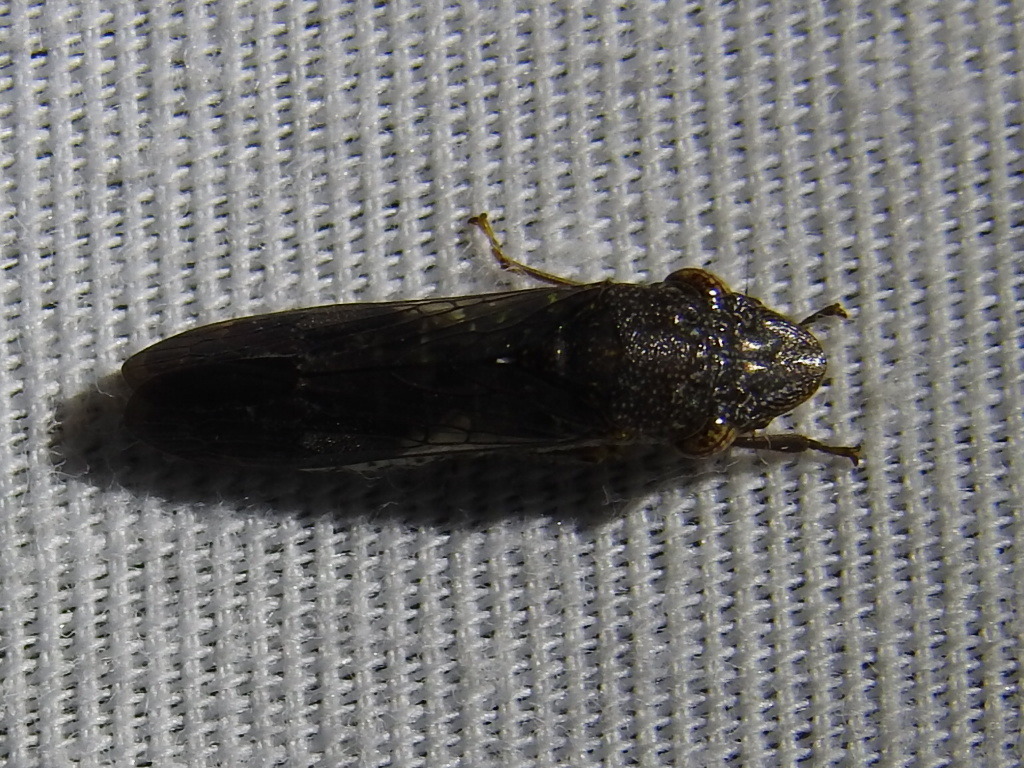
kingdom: Animalia
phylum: Arthropoda
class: Insecta
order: Hemiptera
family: Cicadellidae
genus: Homalodisca
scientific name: Homalodisca vitripennis
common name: Glassy-winged sharpshooter
